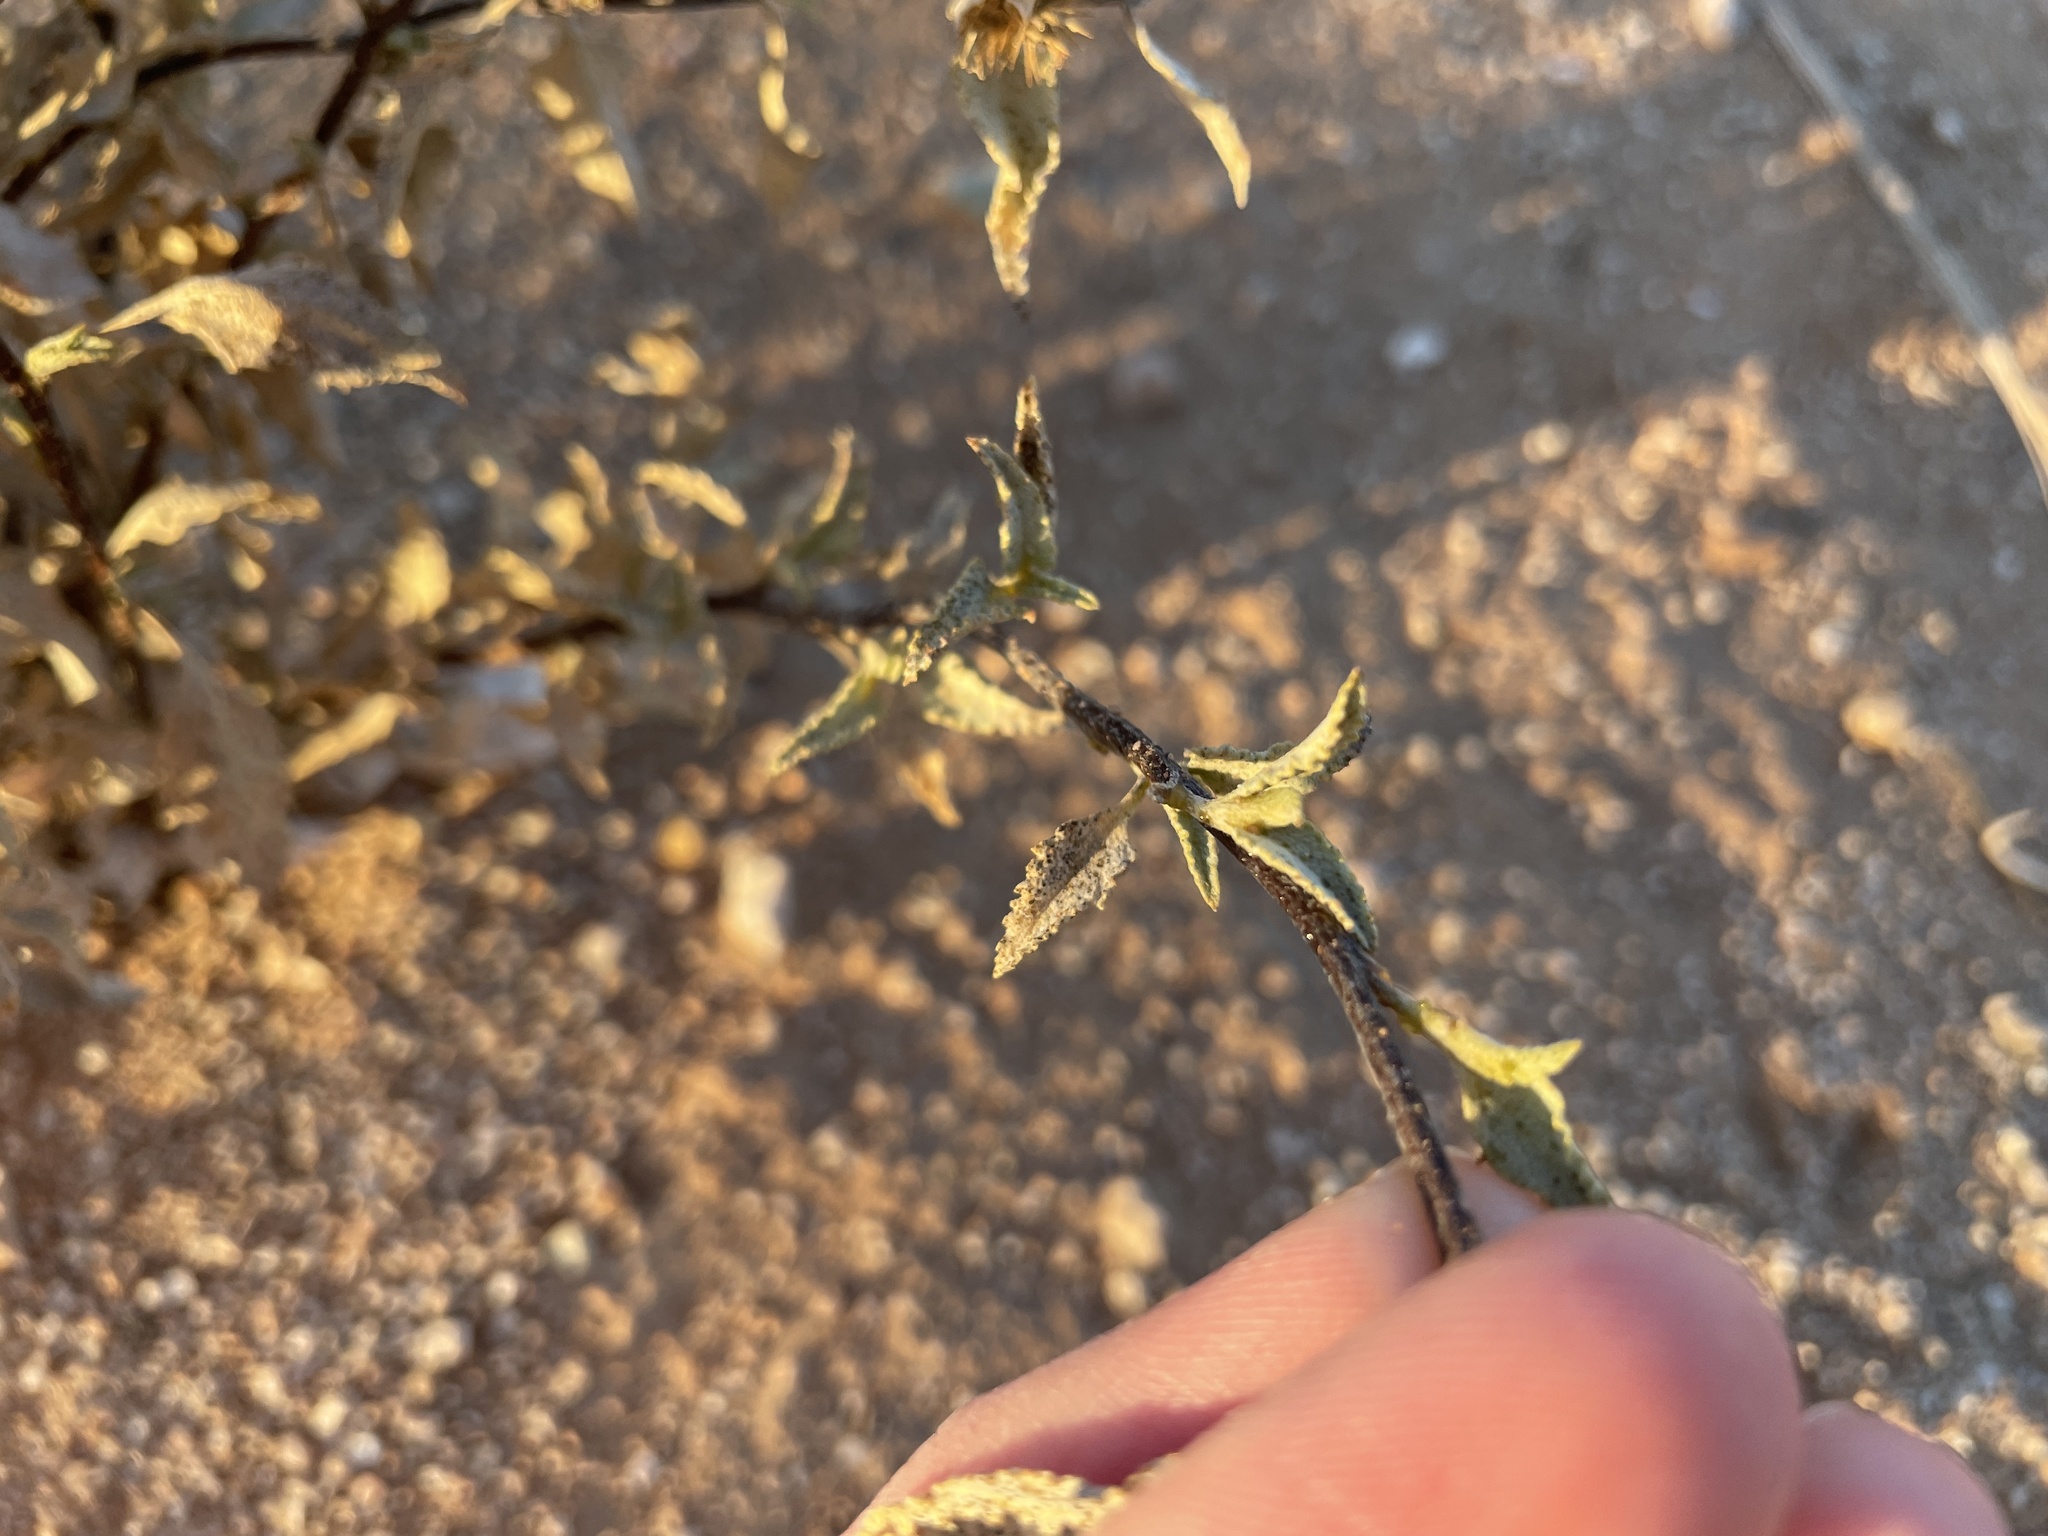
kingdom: Plantae
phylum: Tracheophyta
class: Magnoliopsida
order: Asterales
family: Asteraceae
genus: Ambrosia
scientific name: Ambrosia deltoidea
